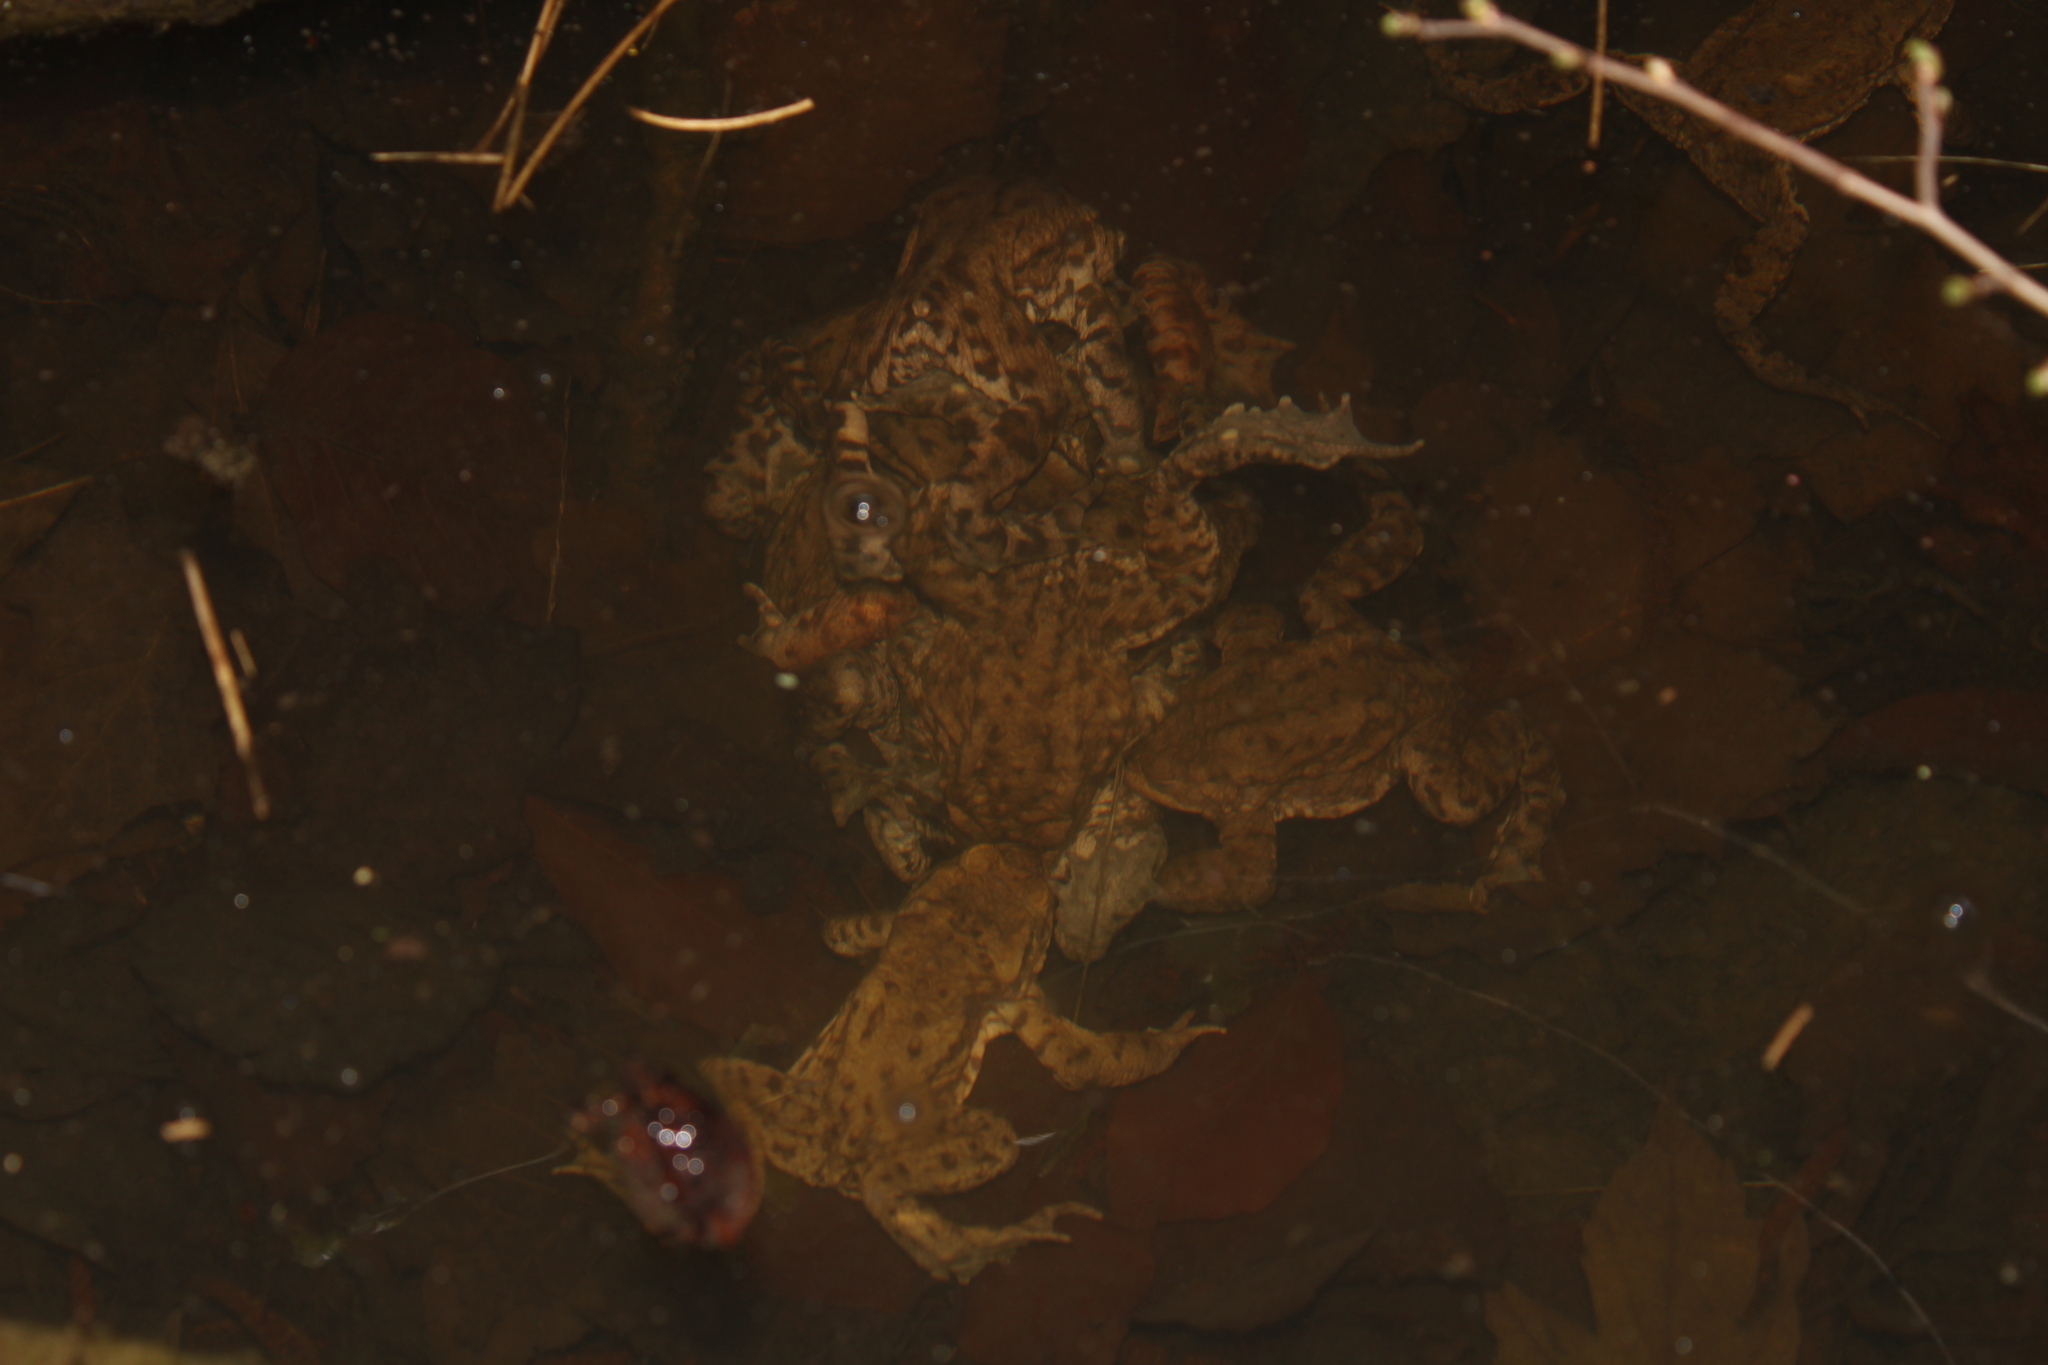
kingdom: Animalia
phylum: Chordata
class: Amphibia
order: Anura
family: Bufonidae
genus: Bufo
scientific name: Bufo bufo
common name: Common toad
